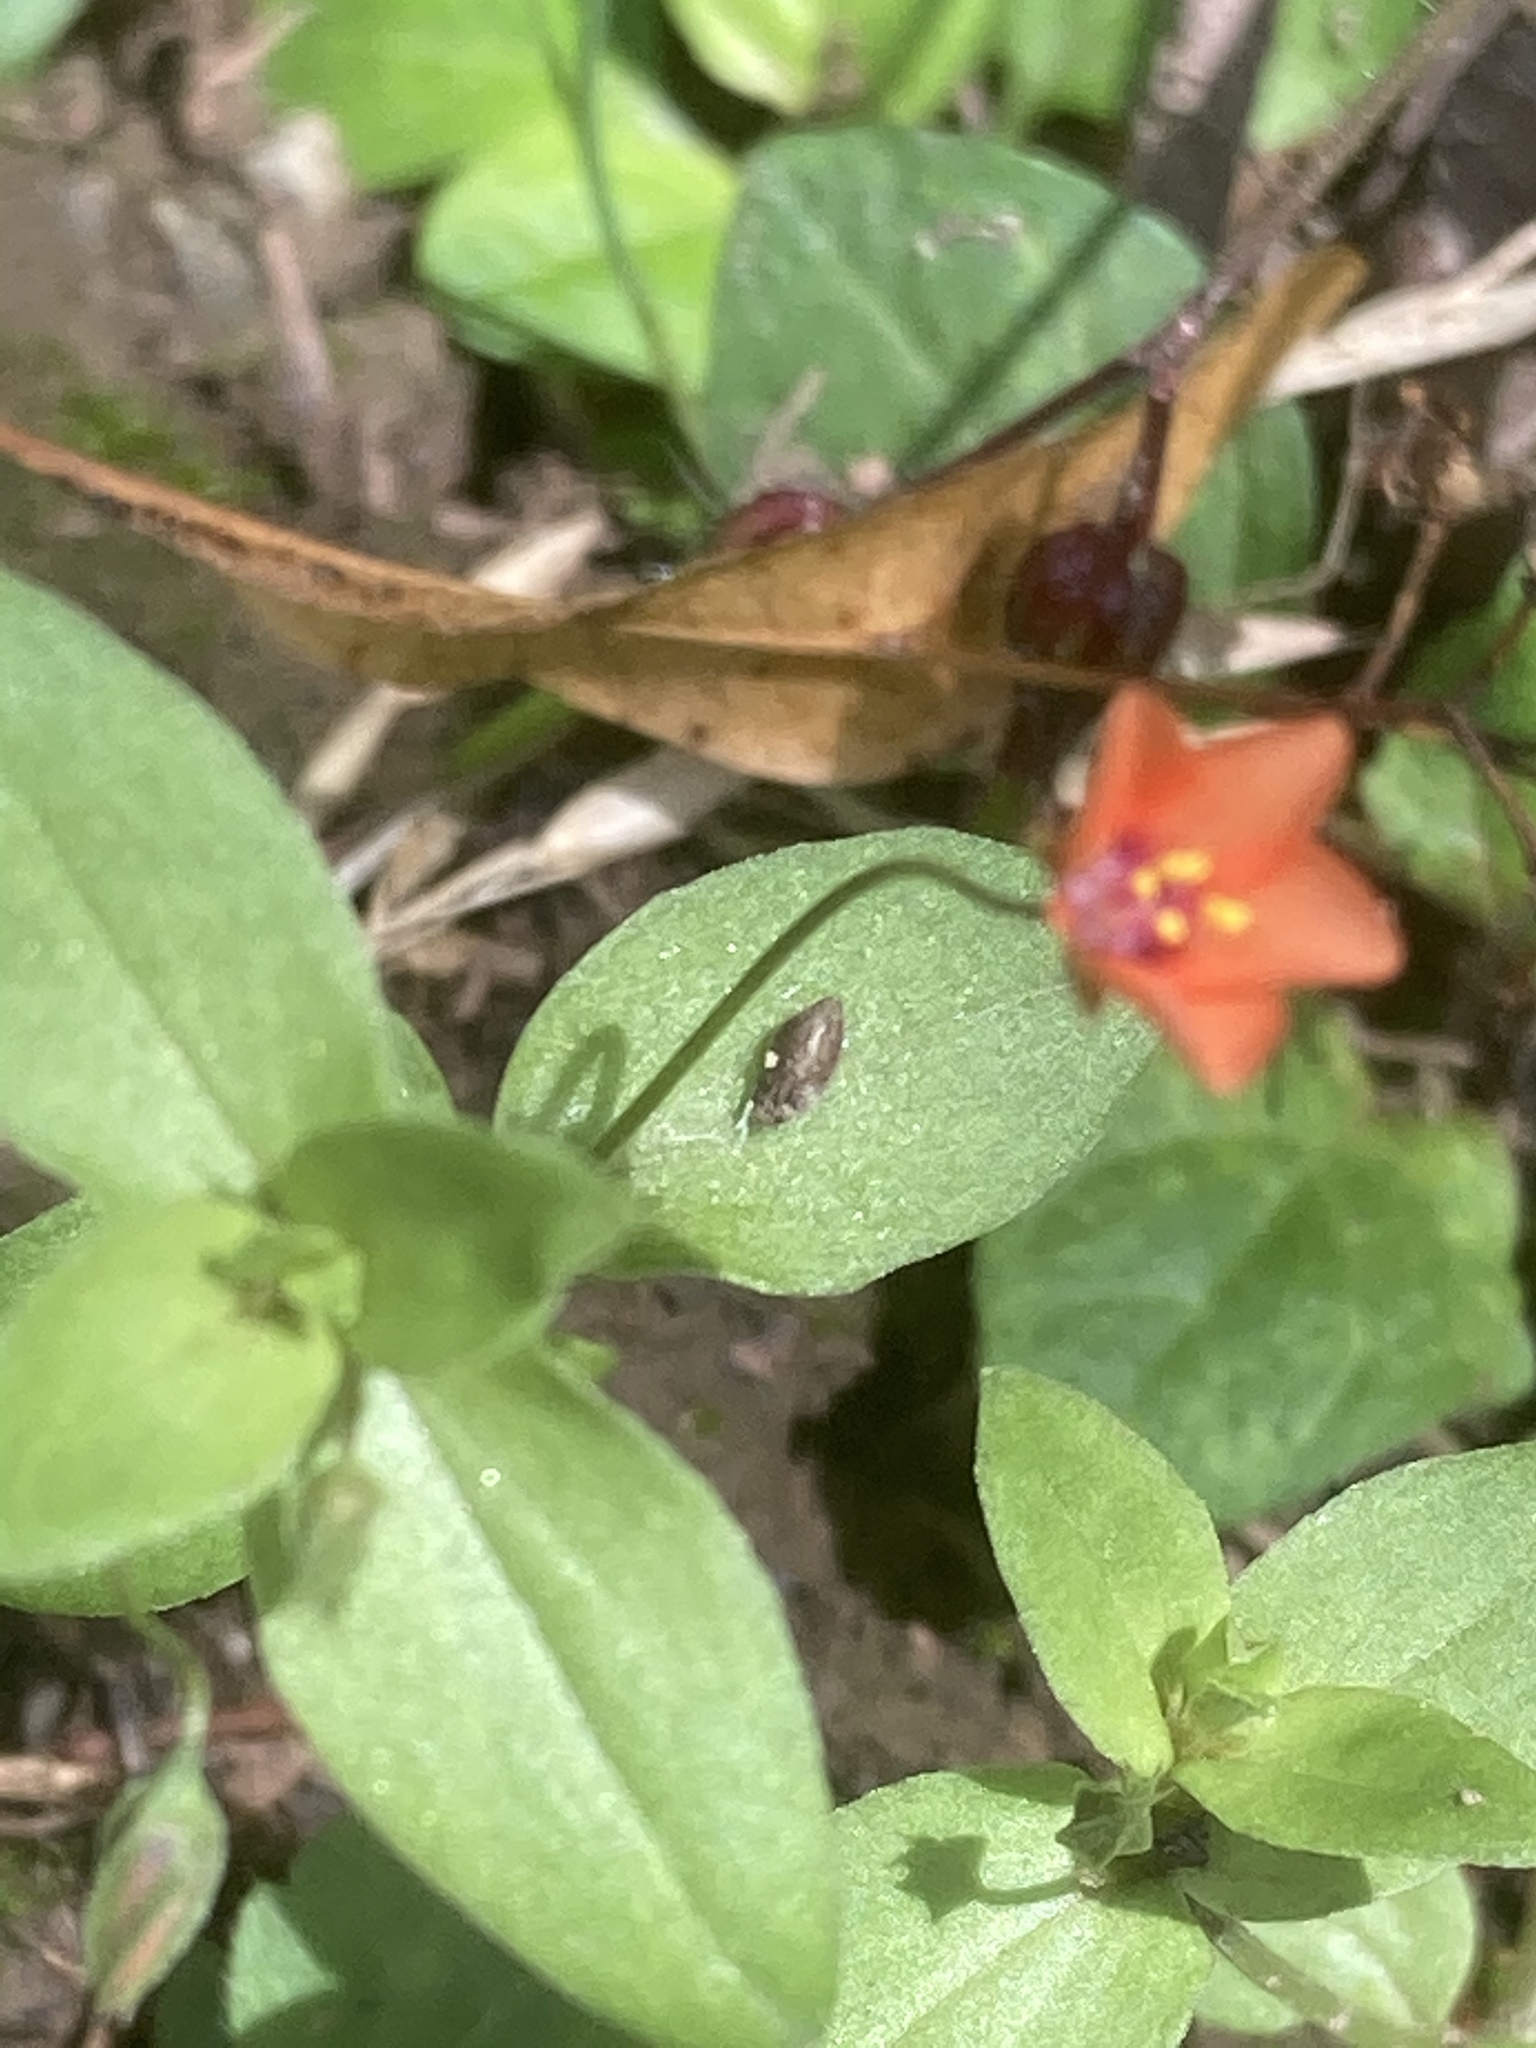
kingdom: Plantae
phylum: Tracheophyta
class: Magnoliopsida
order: Ericales
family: Primulaceae
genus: Lysimachia
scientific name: Lysimachia arvensis
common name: Scarlet pimpernel
